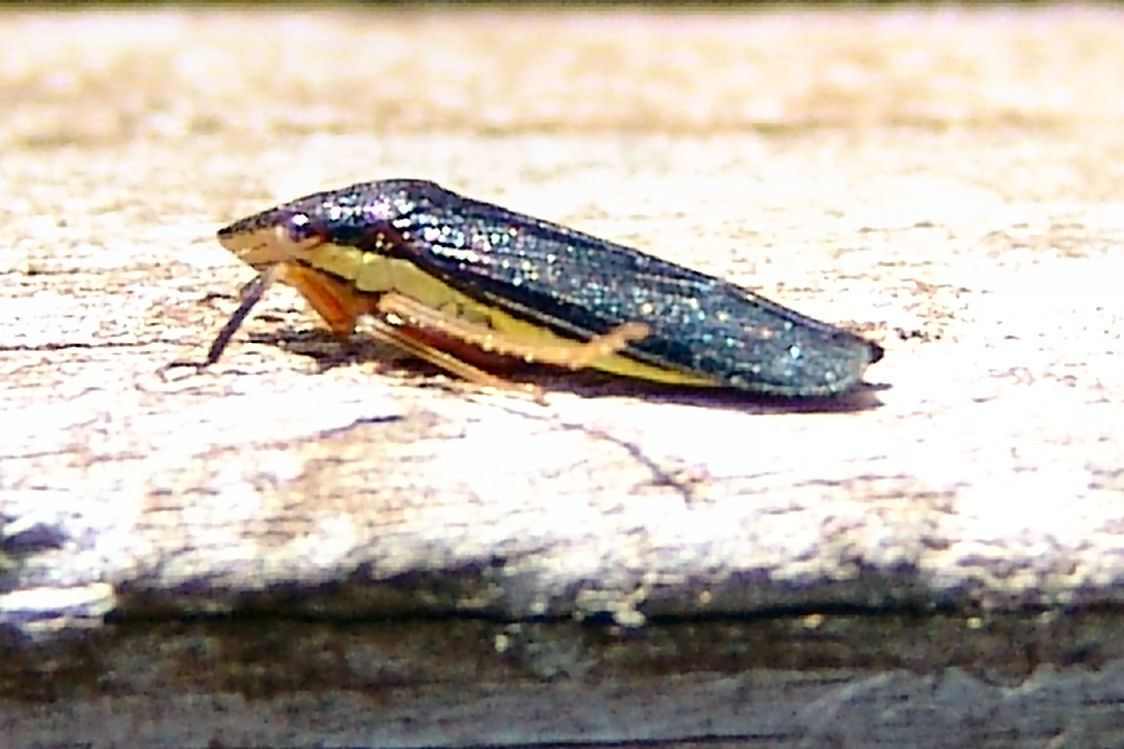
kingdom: Animalia
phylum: Arthropoda
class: Insecta
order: Hemiptera
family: Cicadellidae
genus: Homalodisca
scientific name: Homalodisca insolita
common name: Johnson grass sharpshooter
